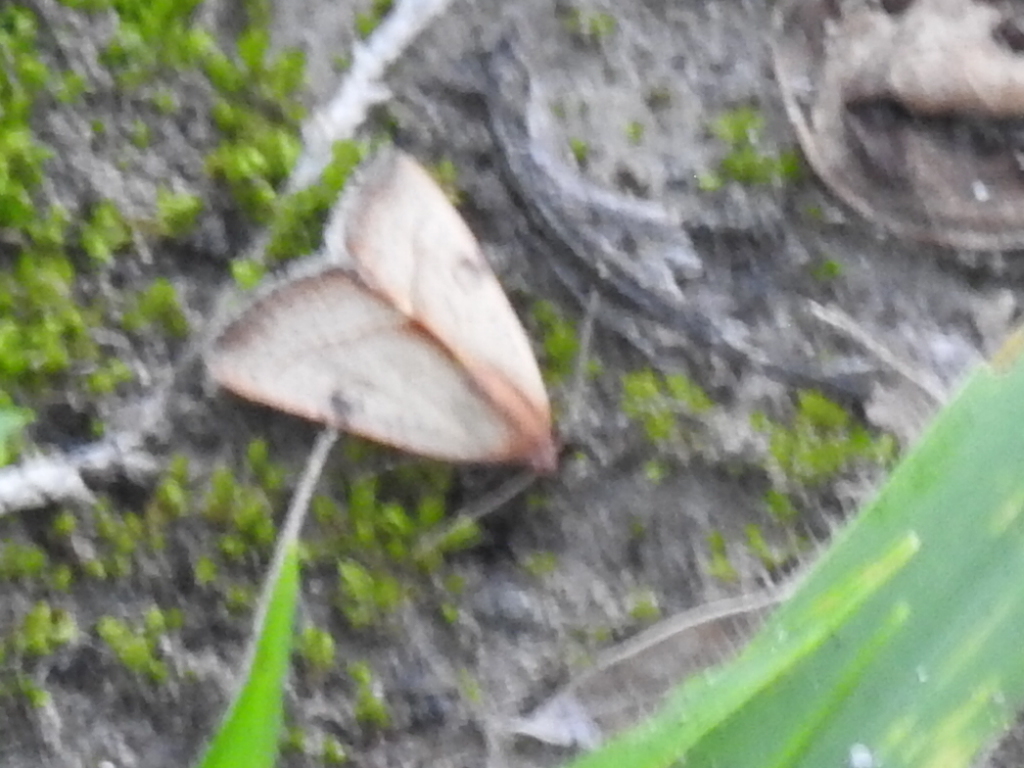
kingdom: Animalia
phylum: Arthropoda
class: Insecta
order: Lepidoptera
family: Noctuidae
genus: Galgula
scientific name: Galgula partita
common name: Wedgeling
